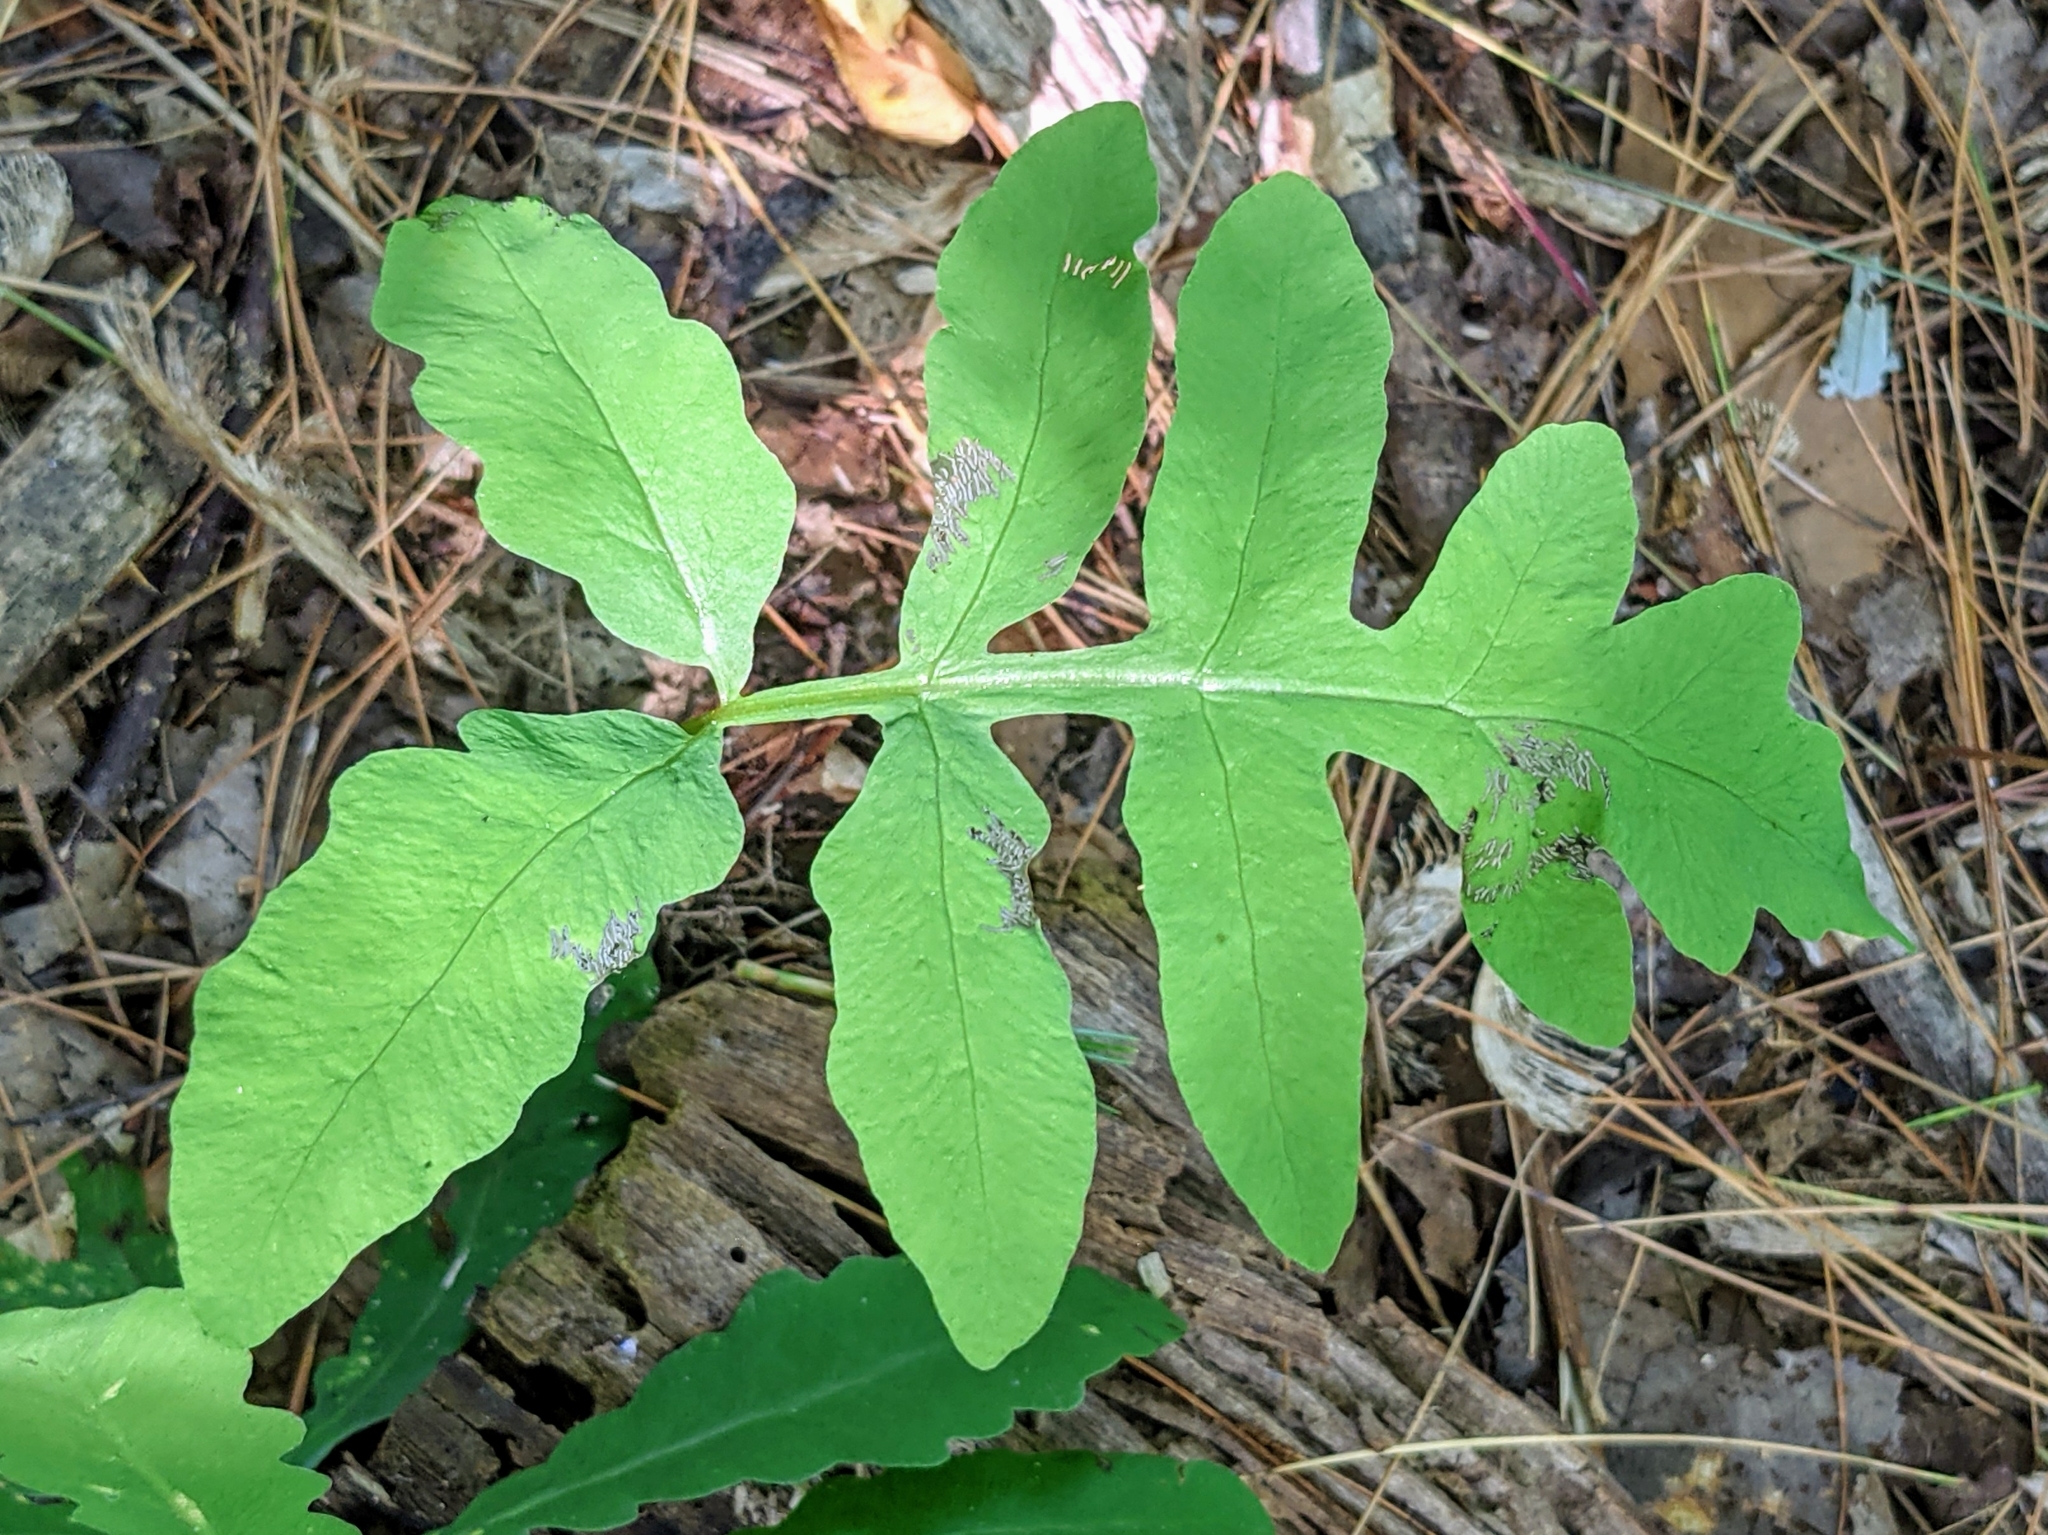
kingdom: Plantae
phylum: Tracheophyta
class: Polypodiopsida
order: Polypodiales
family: Onocleaceae
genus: Onoclea
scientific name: Onoclea sensibilis
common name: Sensitive fern
